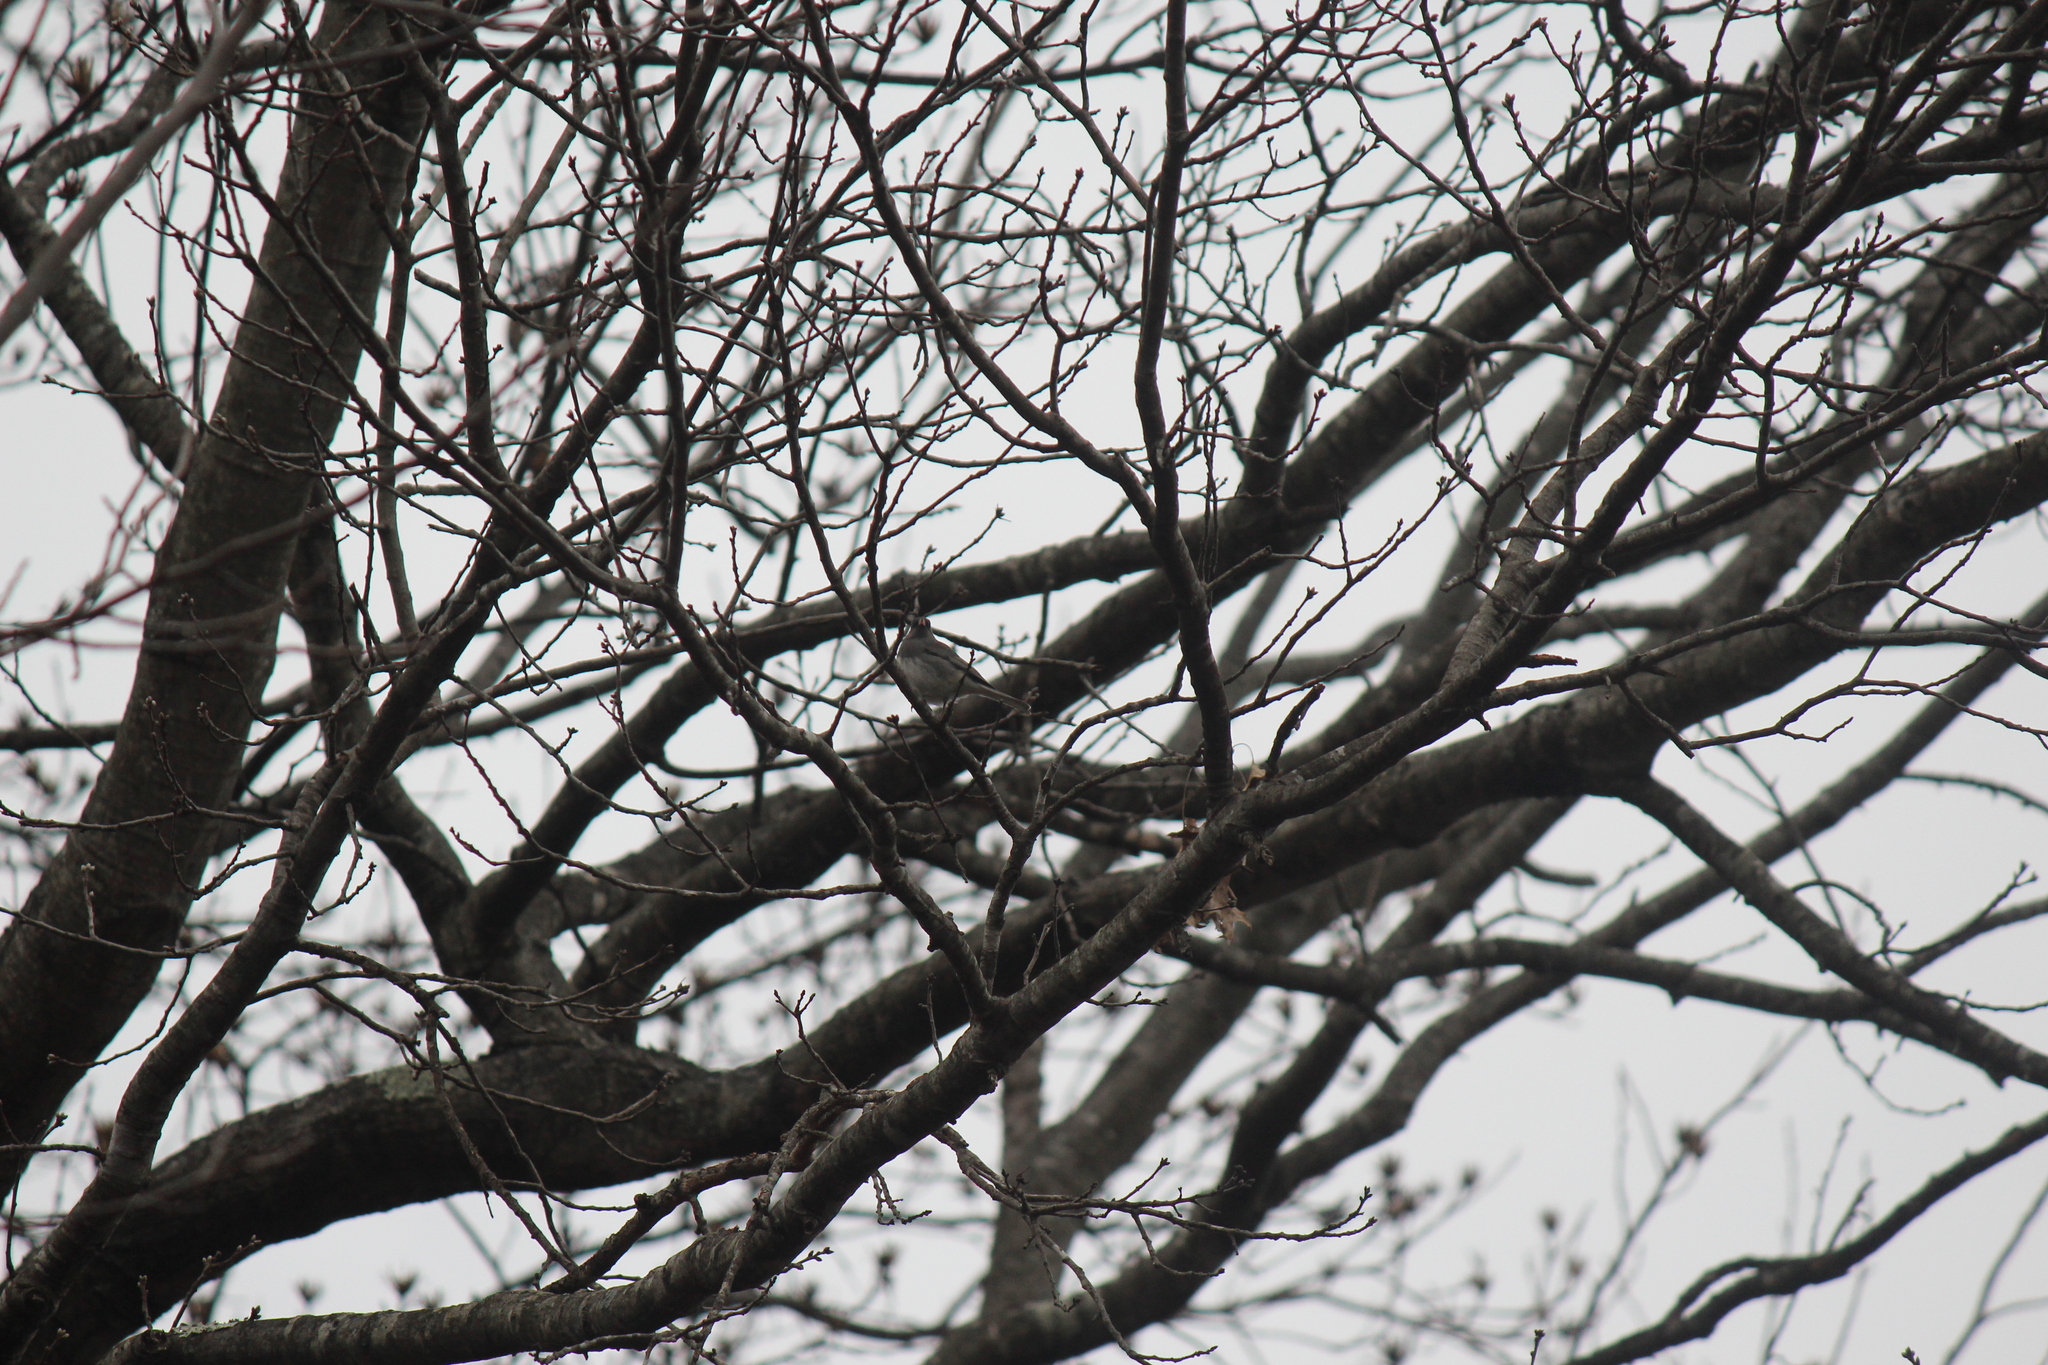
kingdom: Animalia
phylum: Chordata
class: Aves
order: Passeriformes
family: Passerellidae
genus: Junco
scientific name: Junco hyemalis
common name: Dark-eyed junco
